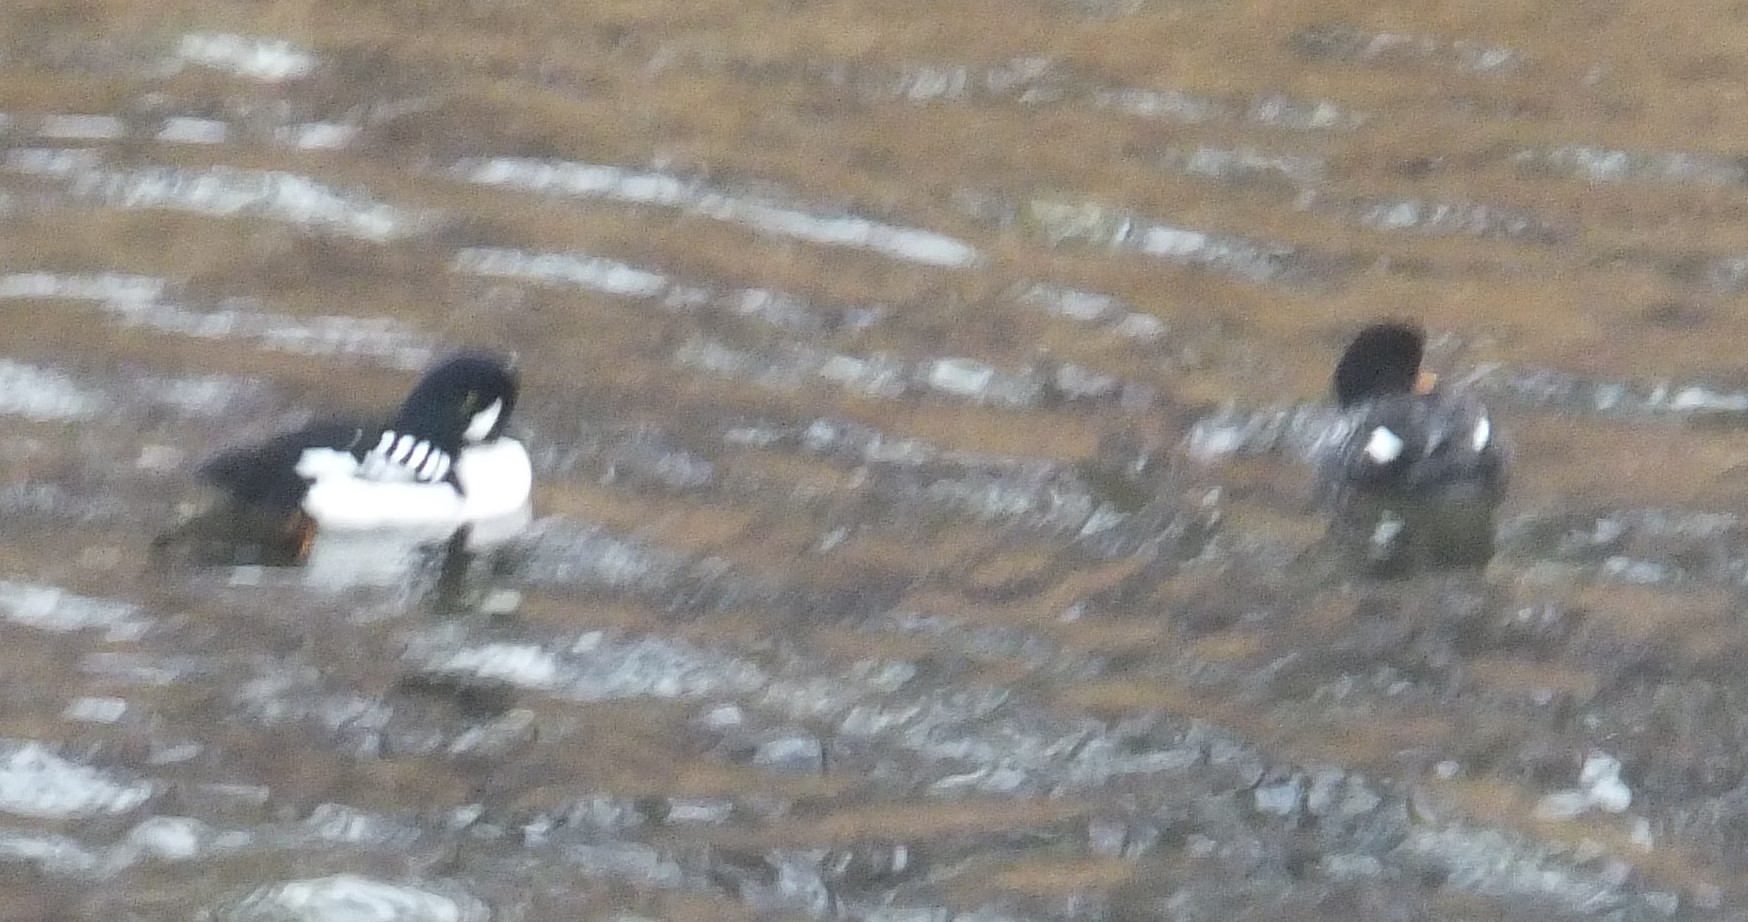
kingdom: Animalia
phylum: Chordata
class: Aves
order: Anseriformes
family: Anatidae
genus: Bucephala
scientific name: Bucephala islandica
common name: Barrow's goldeneye
